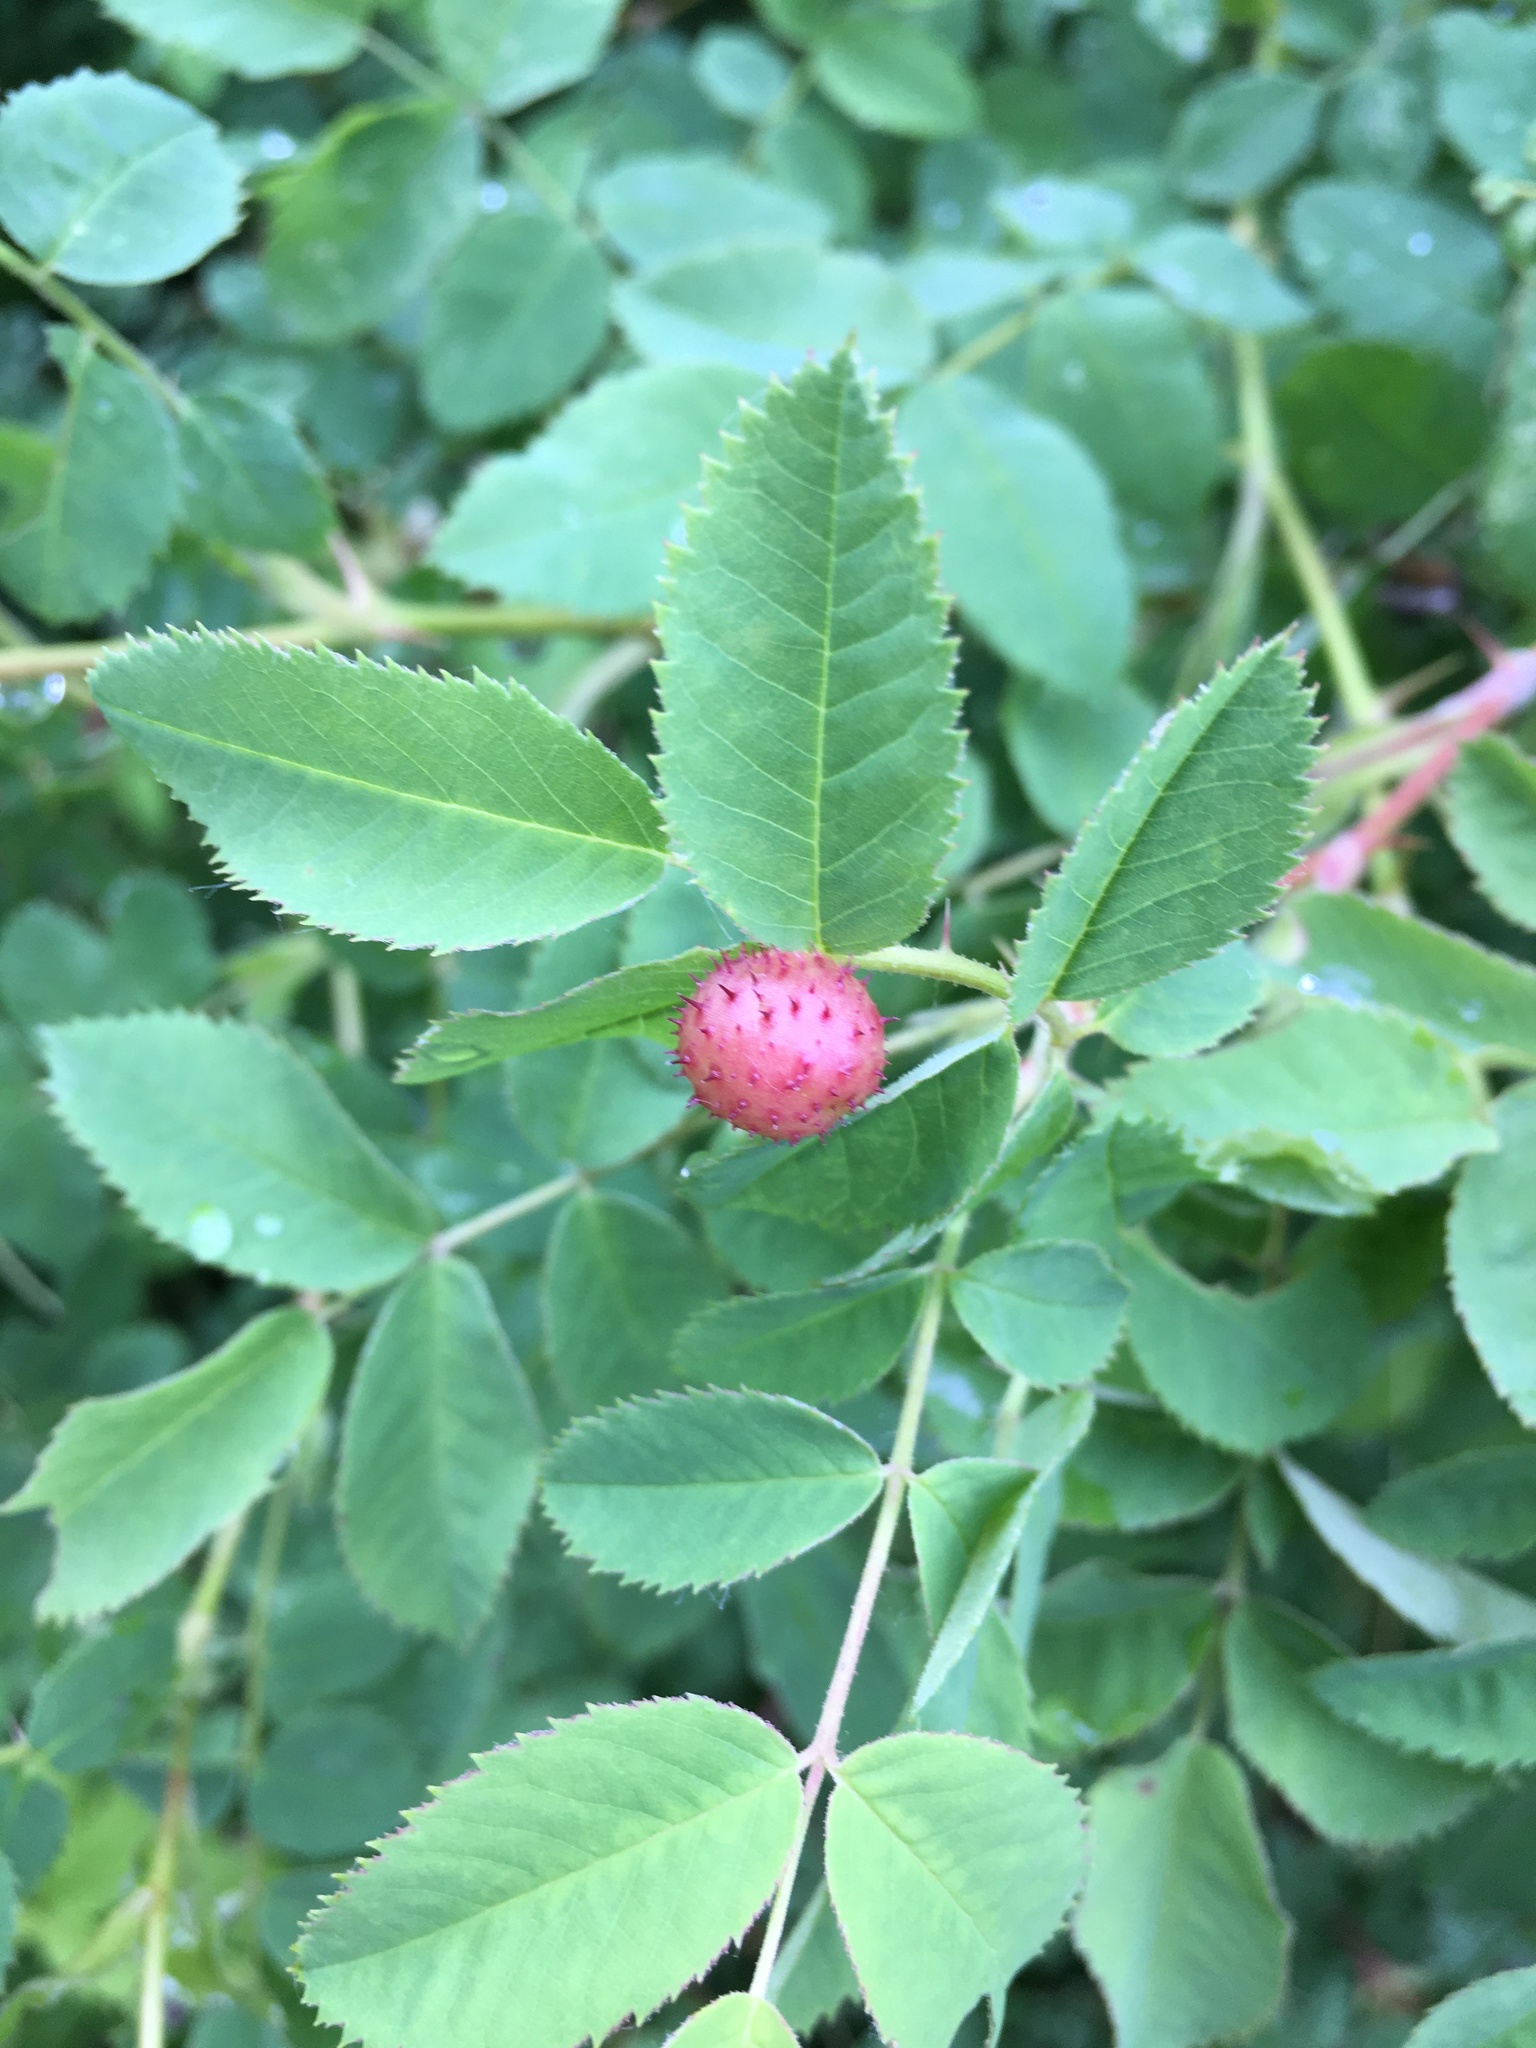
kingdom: Animalia
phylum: Arthropoda
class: Insecta
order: Hymenoptera
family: Cynipidae
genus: Diplolepis
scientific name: Diplolepis polita
